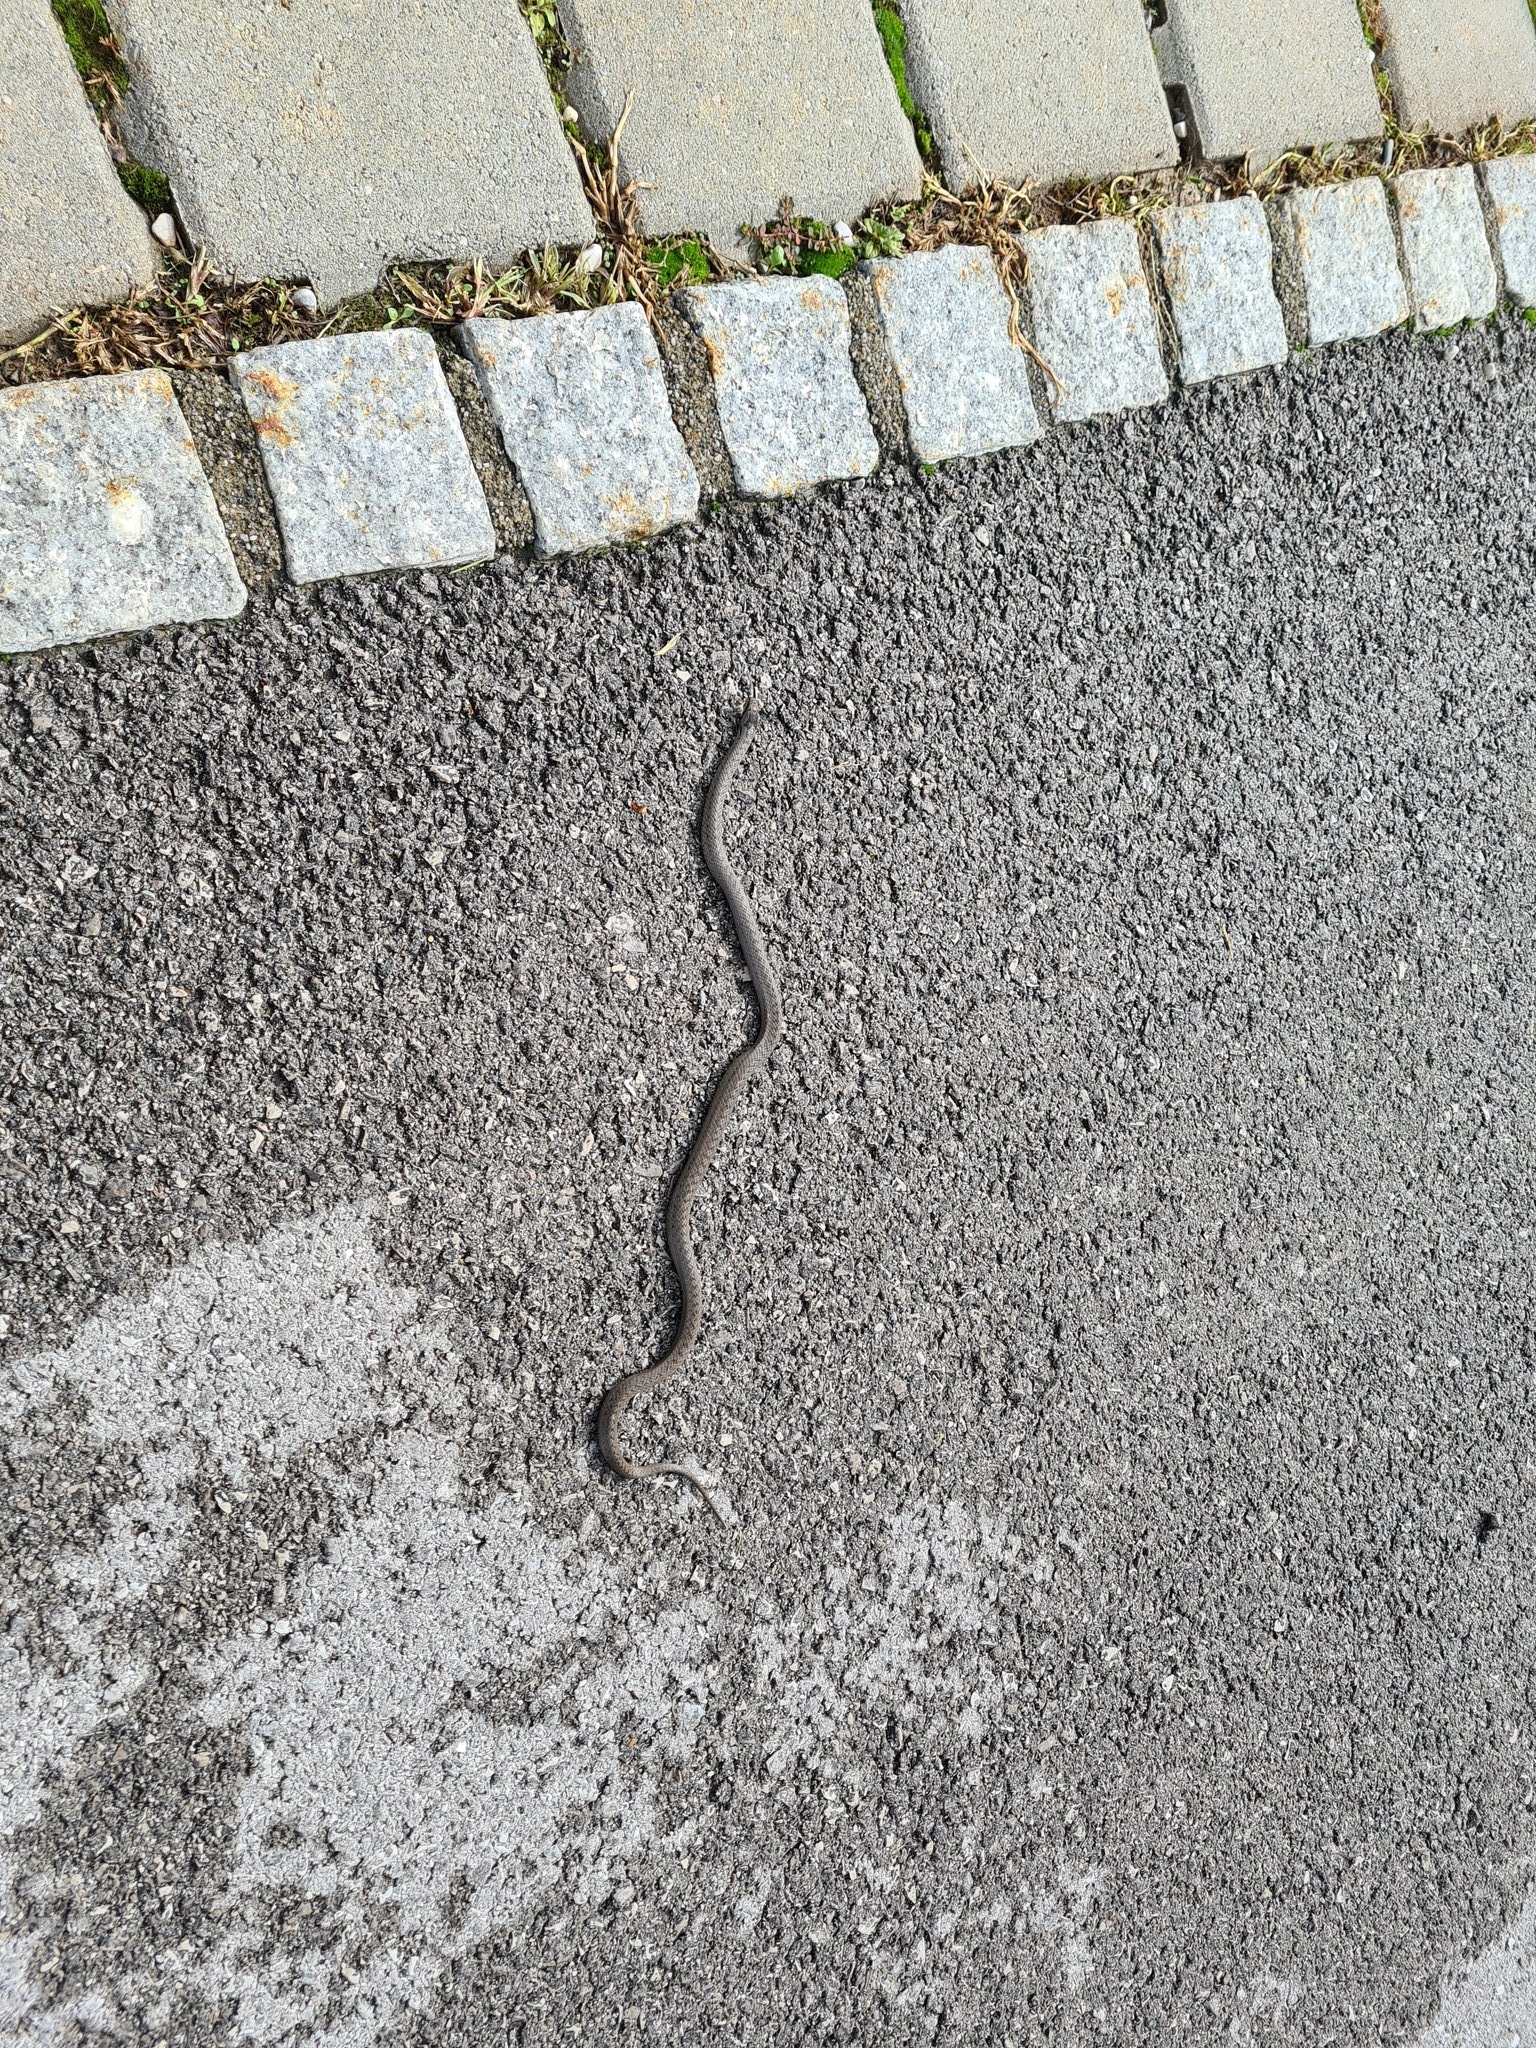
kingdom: Animalia
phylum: Chordata
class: Squamata
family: Colubridae
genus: Coronella
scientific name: Coronella austriaca
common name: Smooth snake
